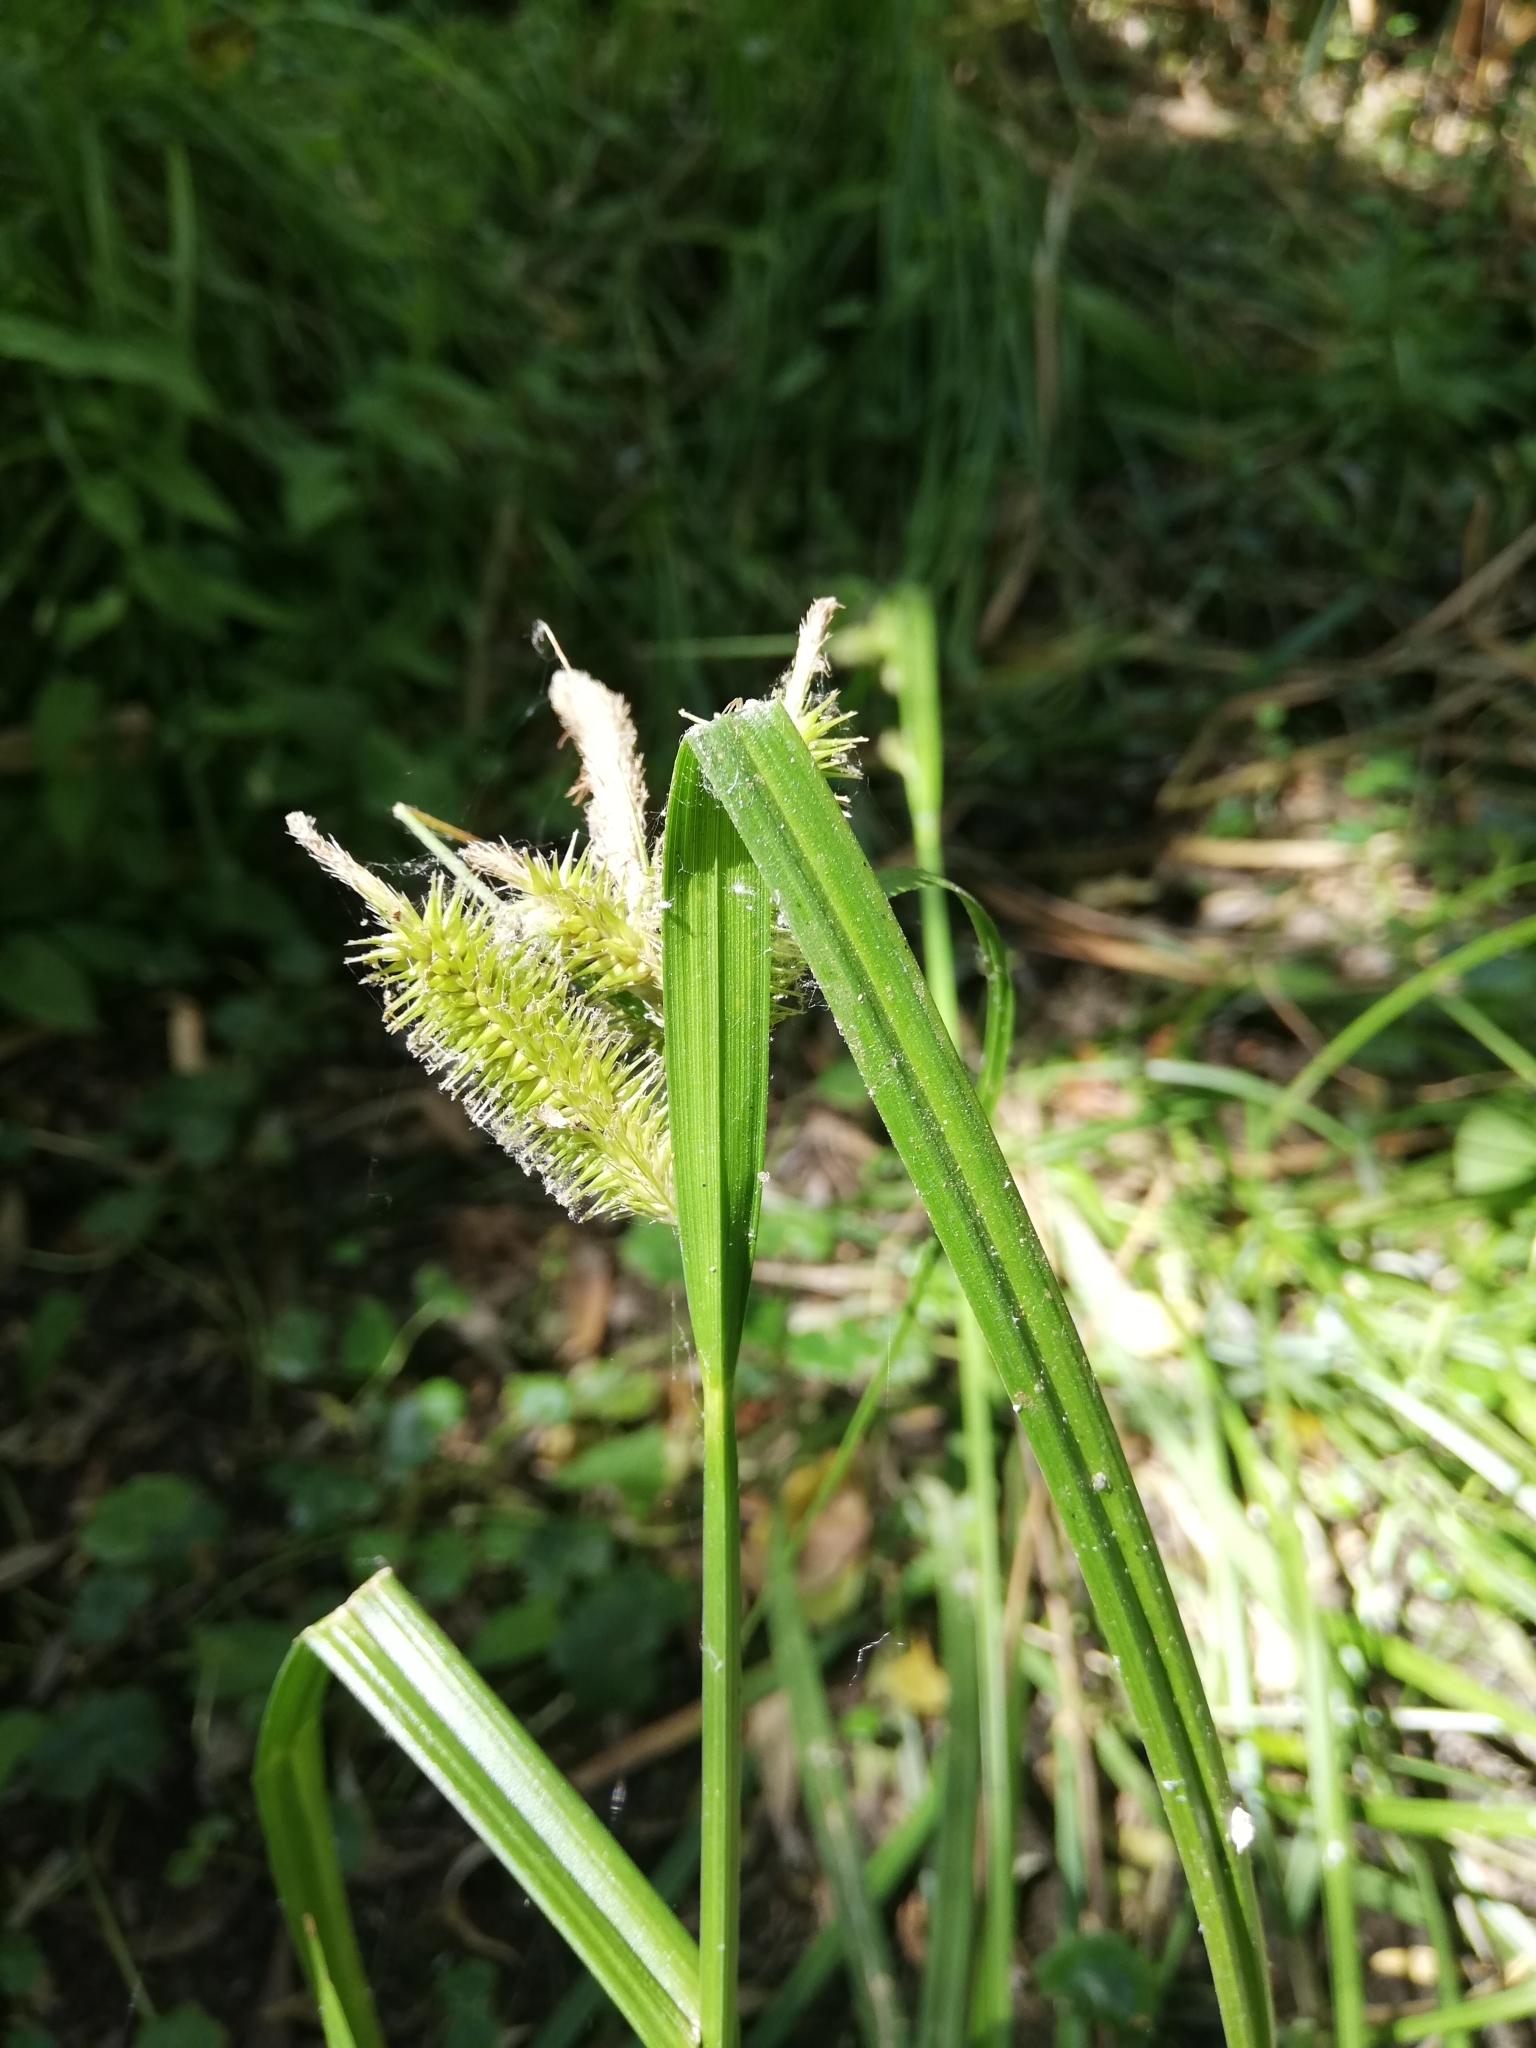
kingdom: Plantae
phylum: Tracheophyta
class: Liliopsida
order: Poales
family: Cyperaceae
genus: Carex
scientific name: Carex excelsa
